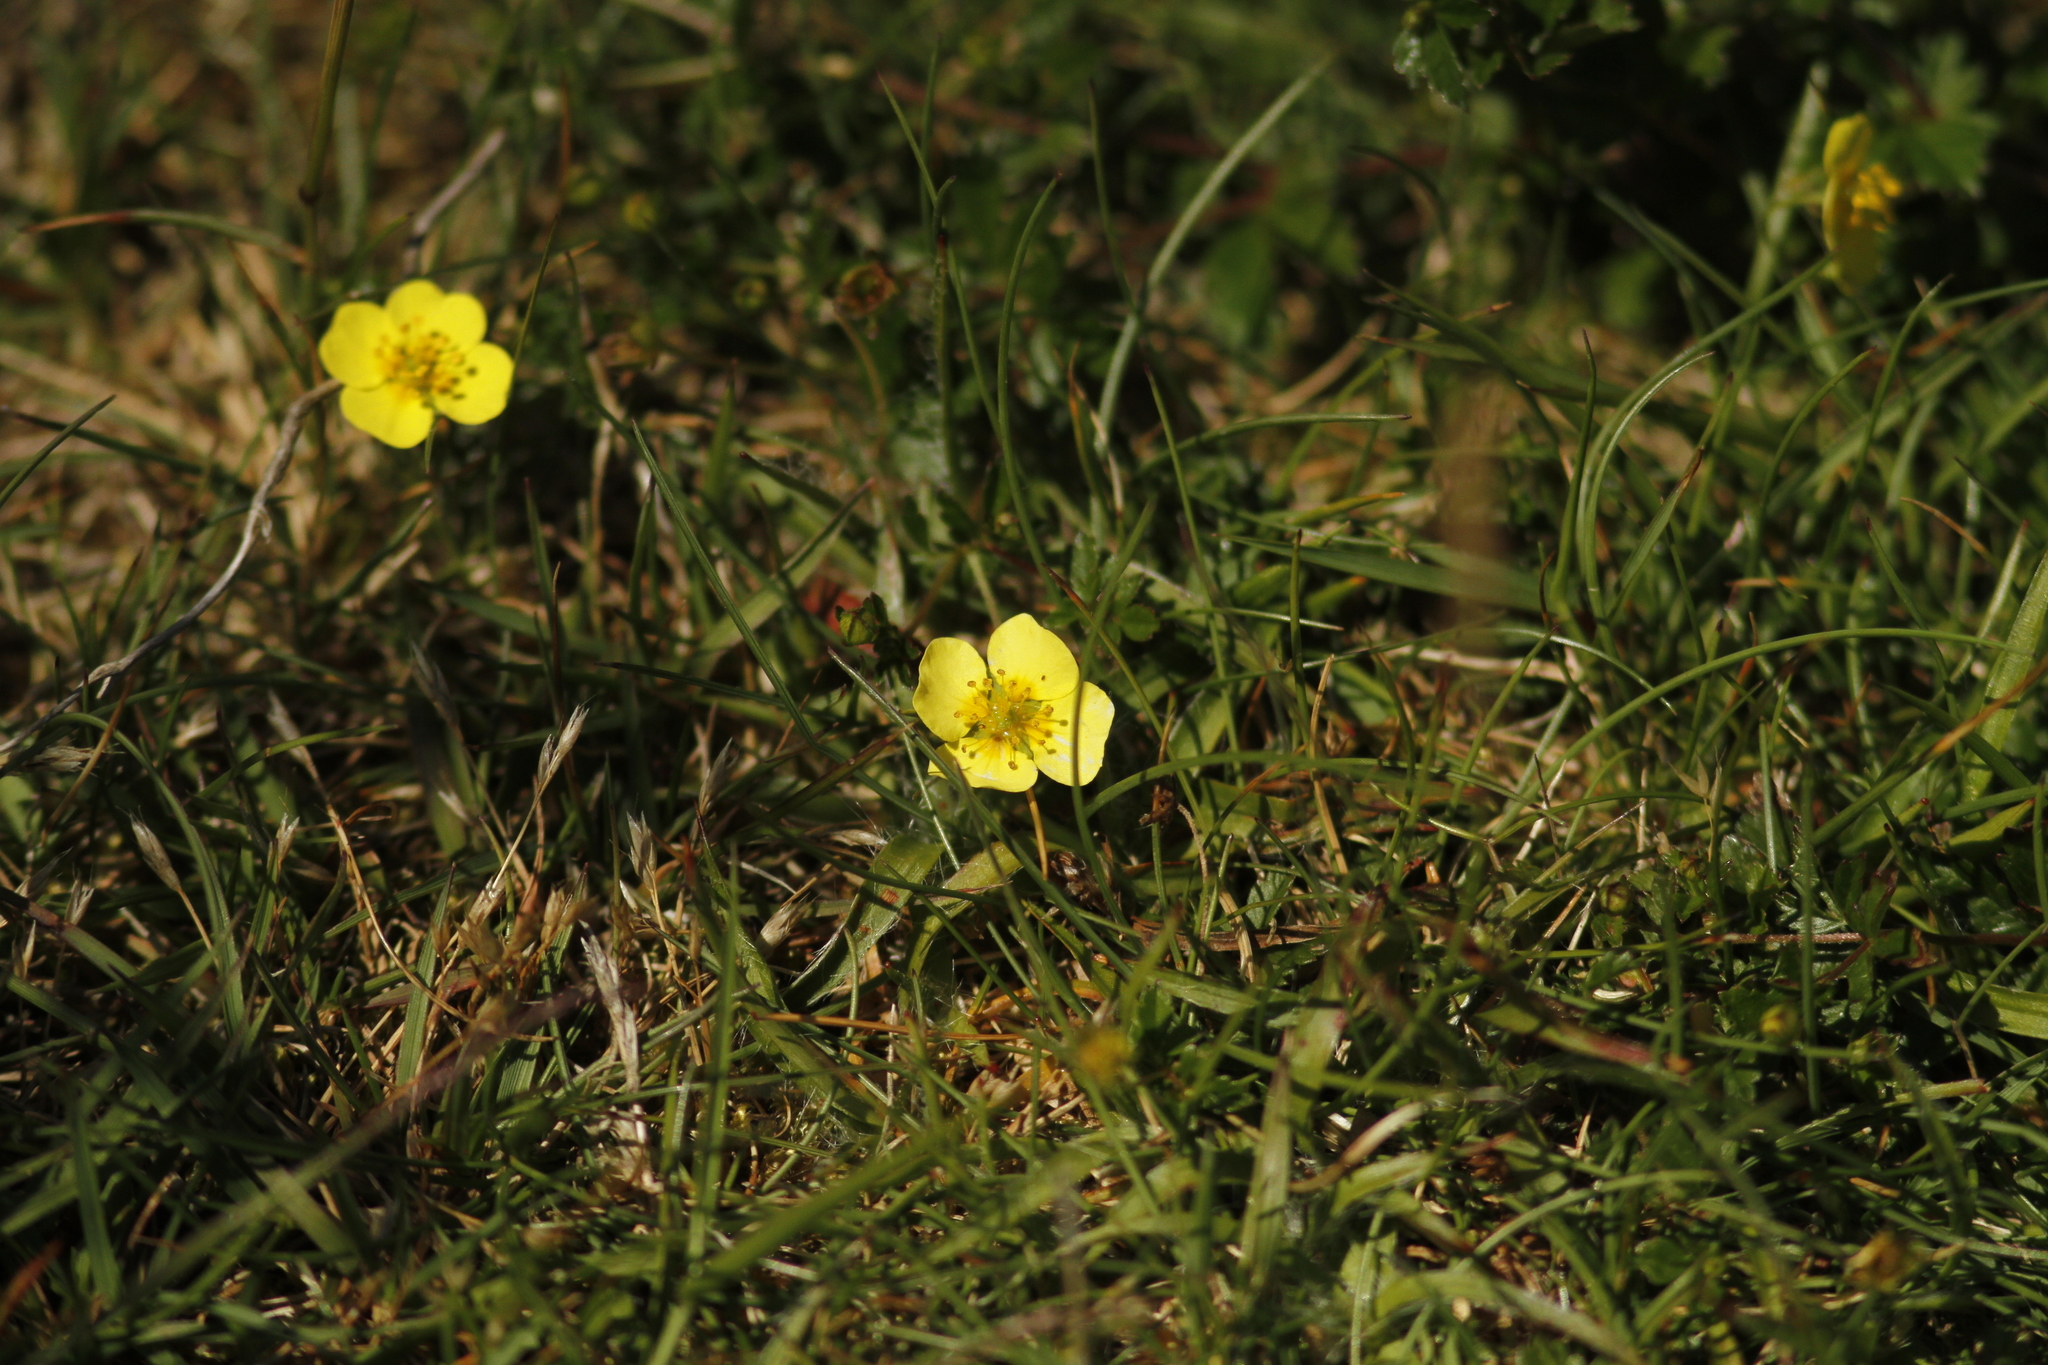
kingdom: Plantae
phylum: Tracheophyta
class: Magnoliopsida
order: Rosales
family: Rosaceae
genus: Potentilla
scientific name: Potentilla erecta
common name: Tormentil
